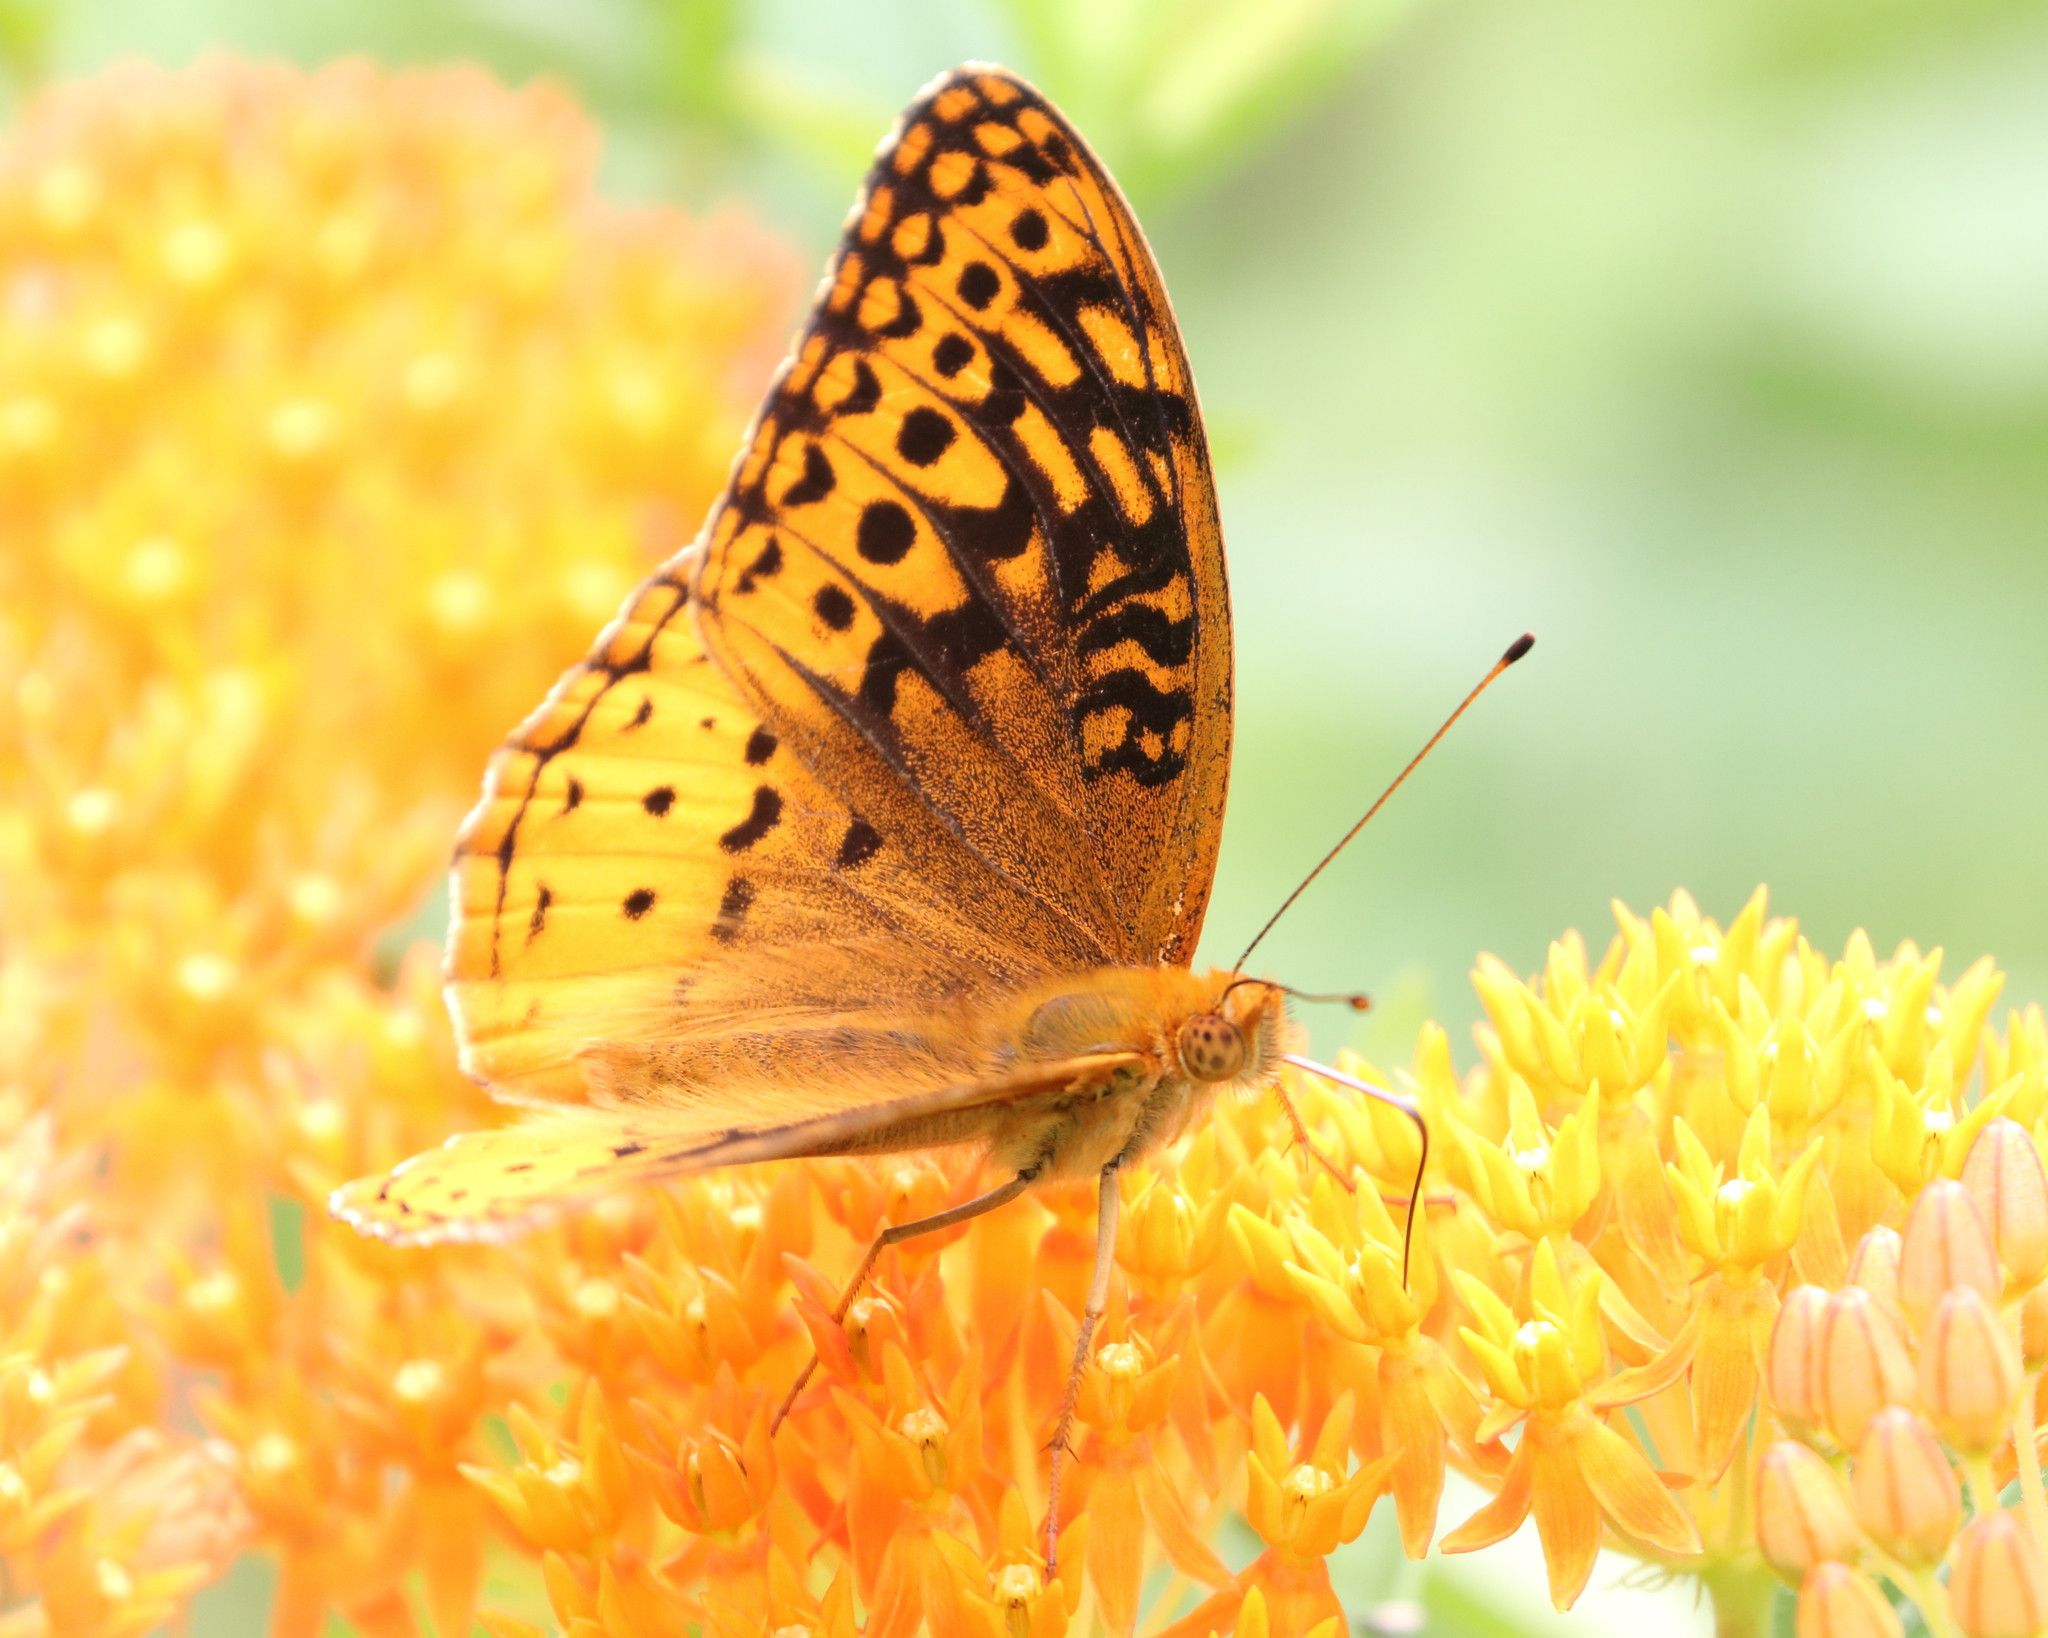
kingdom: Animalia
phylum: Arthropoda
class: Insecta
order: Lepidoptera
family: Nymphalidae
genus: Speyeria
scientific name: Speyeria cybele
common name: Great spangled fritillary
